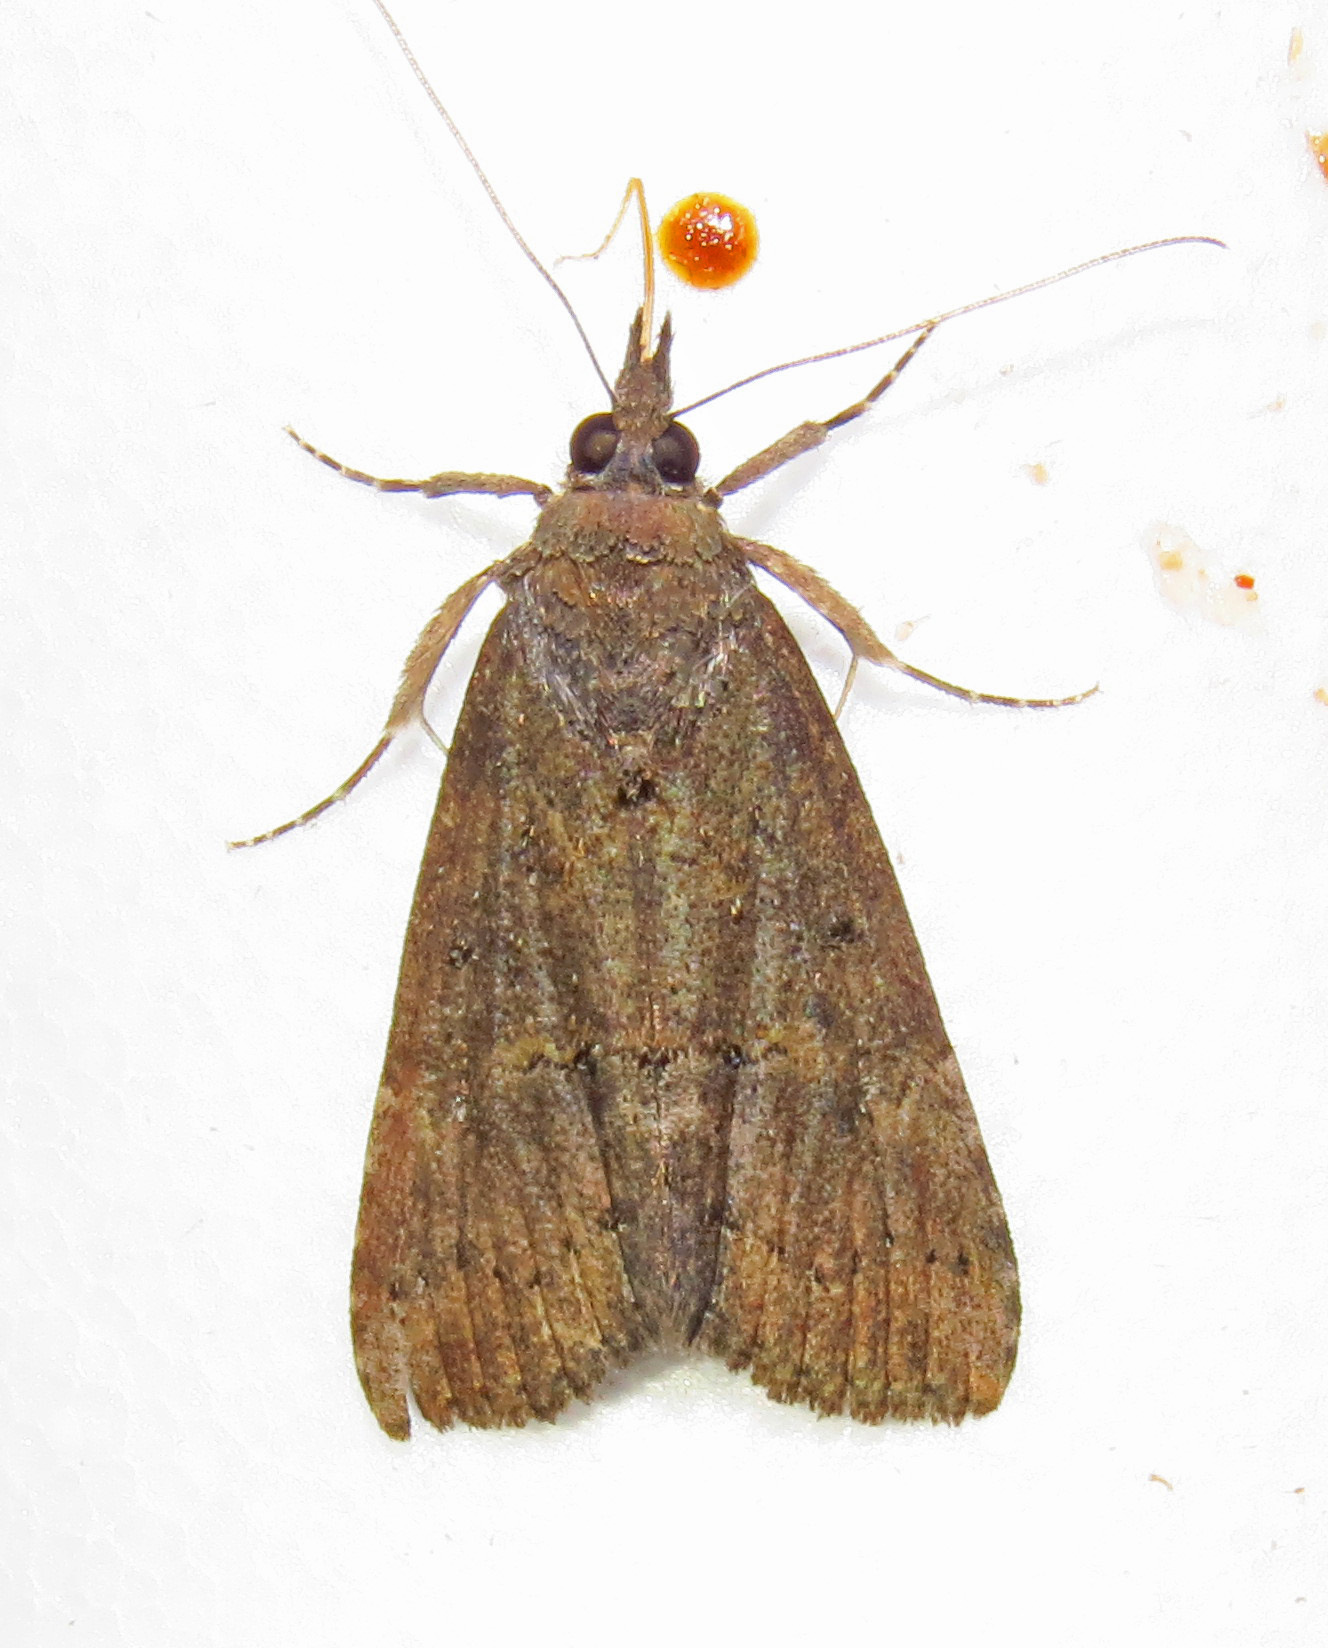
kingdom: Animalia
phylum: Arthropoda
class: Insecta
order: Lepidoptera
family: Erebidae
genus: Hypena
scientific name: Hypena scabra
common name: Green cloverworm
